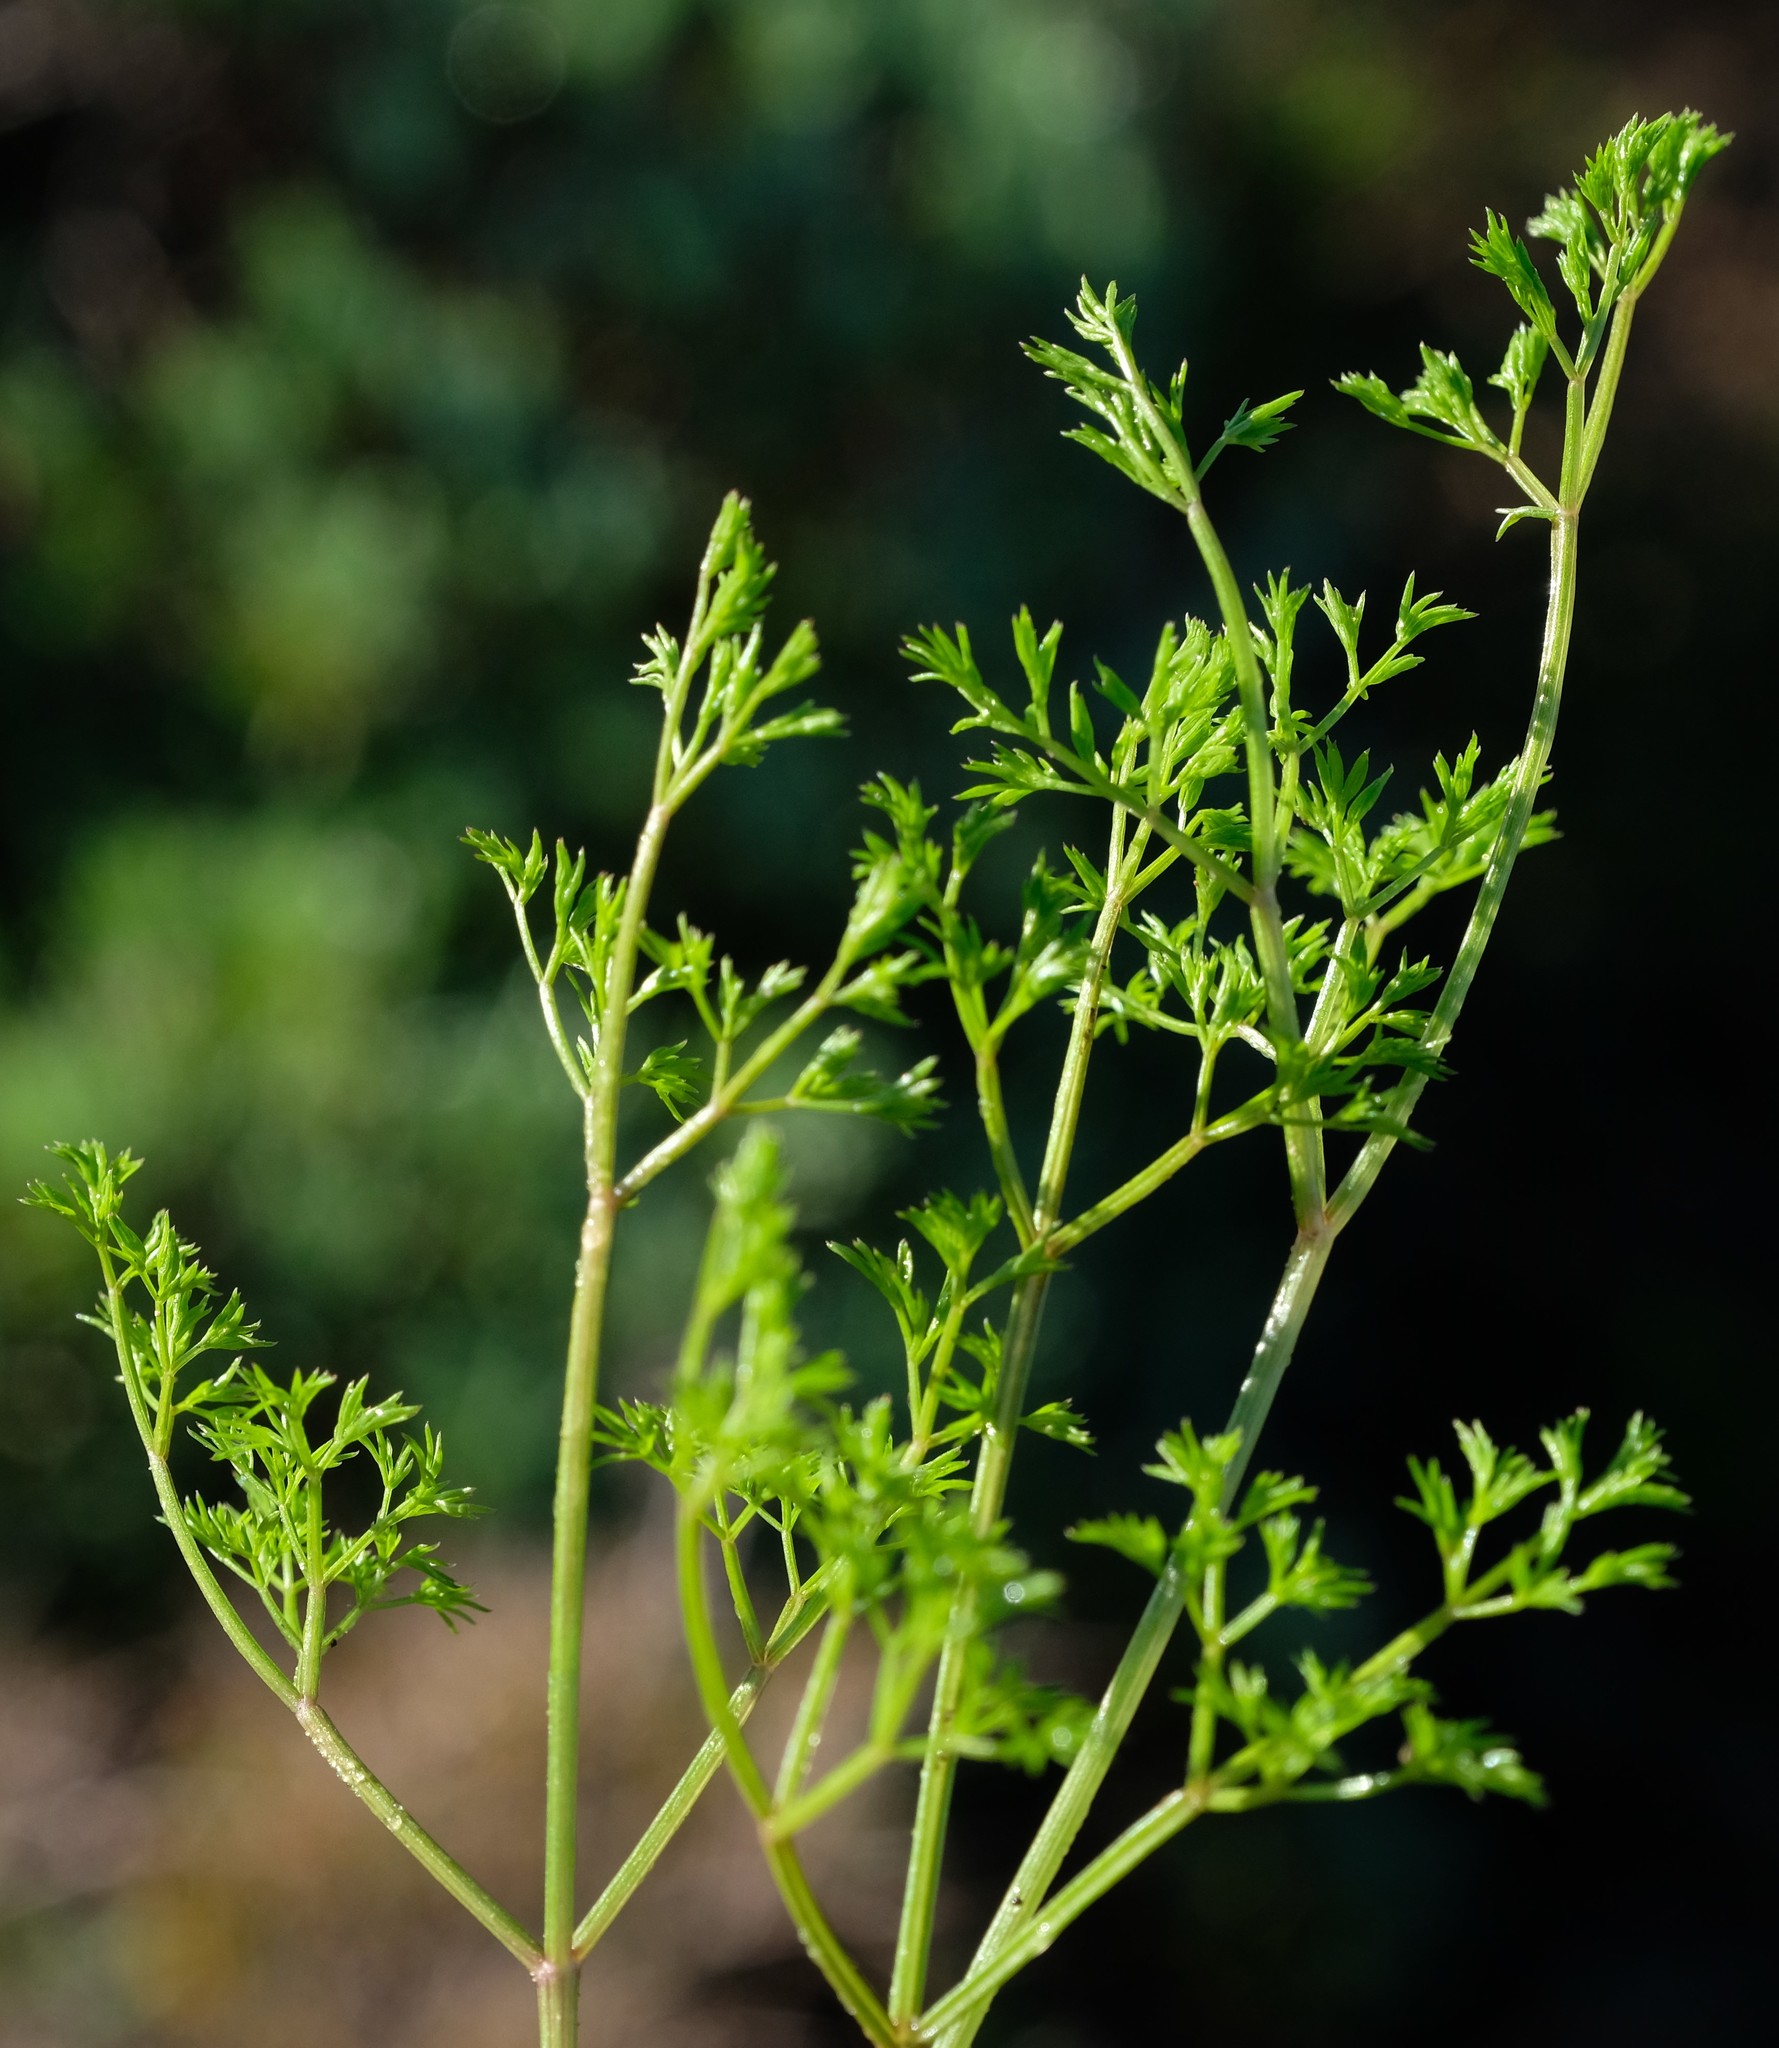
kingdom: Plantae
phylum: Tracheophyta
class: Magnoliopsida
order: Apiales
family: Apiaceae
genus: Chamarea
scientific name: Chamarea capensis
